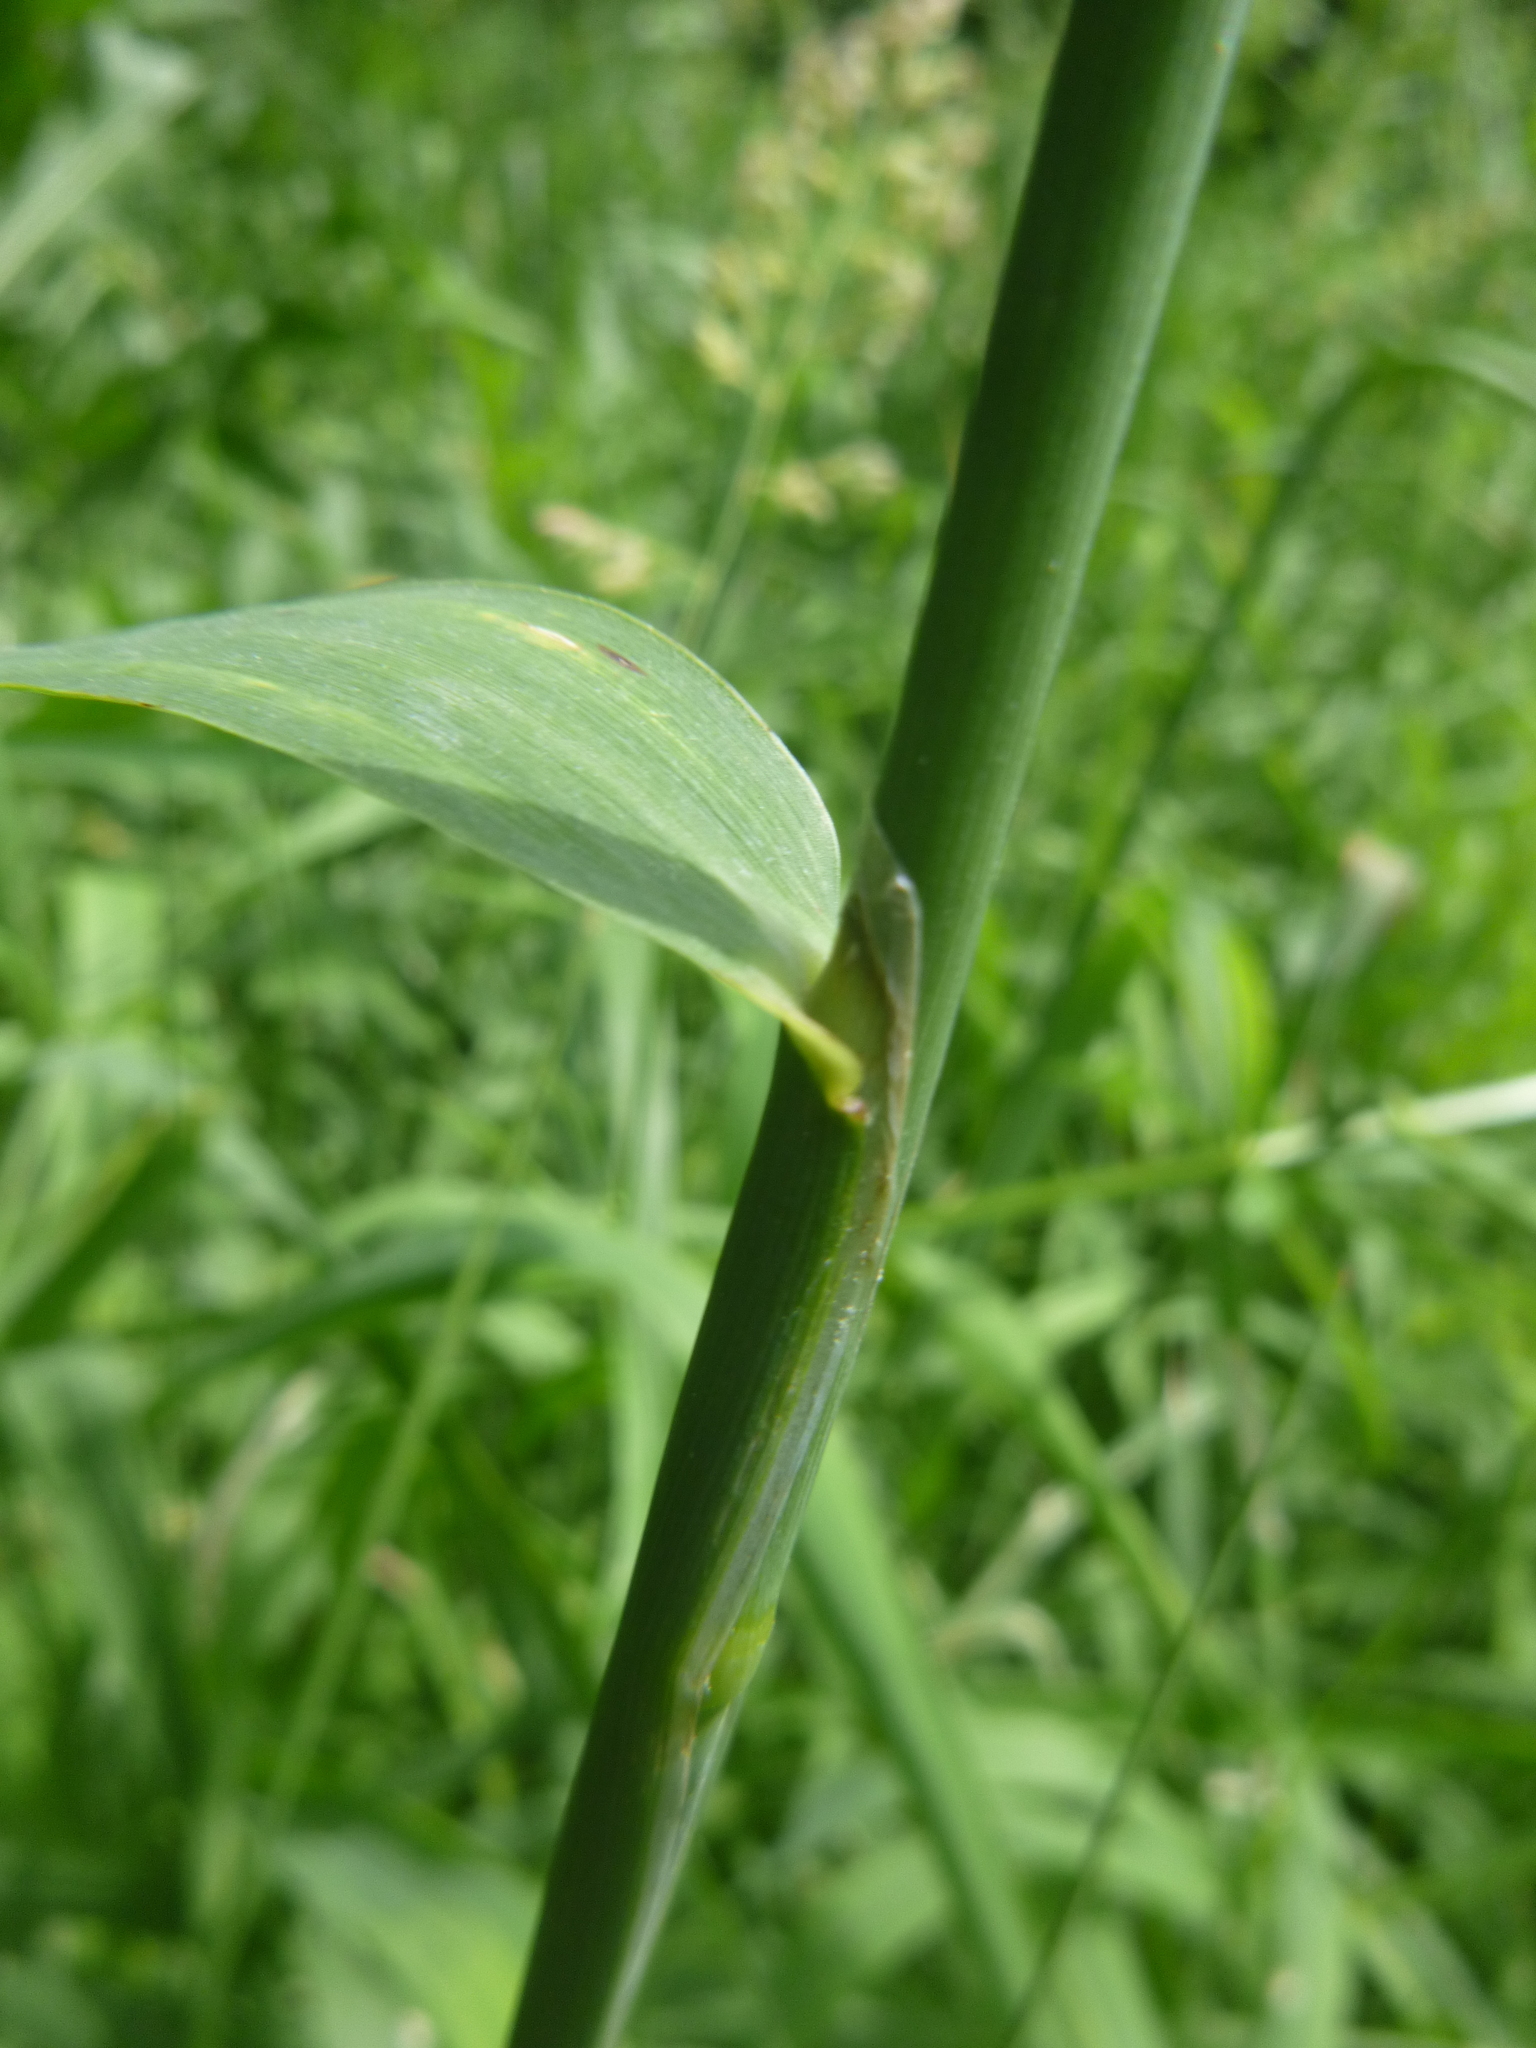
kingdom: Plantae
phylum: Tracheophyta
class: Liliopsida
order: Poales
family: Poaceae
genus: Phalaris
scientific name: Phalaris arundinacea
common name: Reed canary-grass
